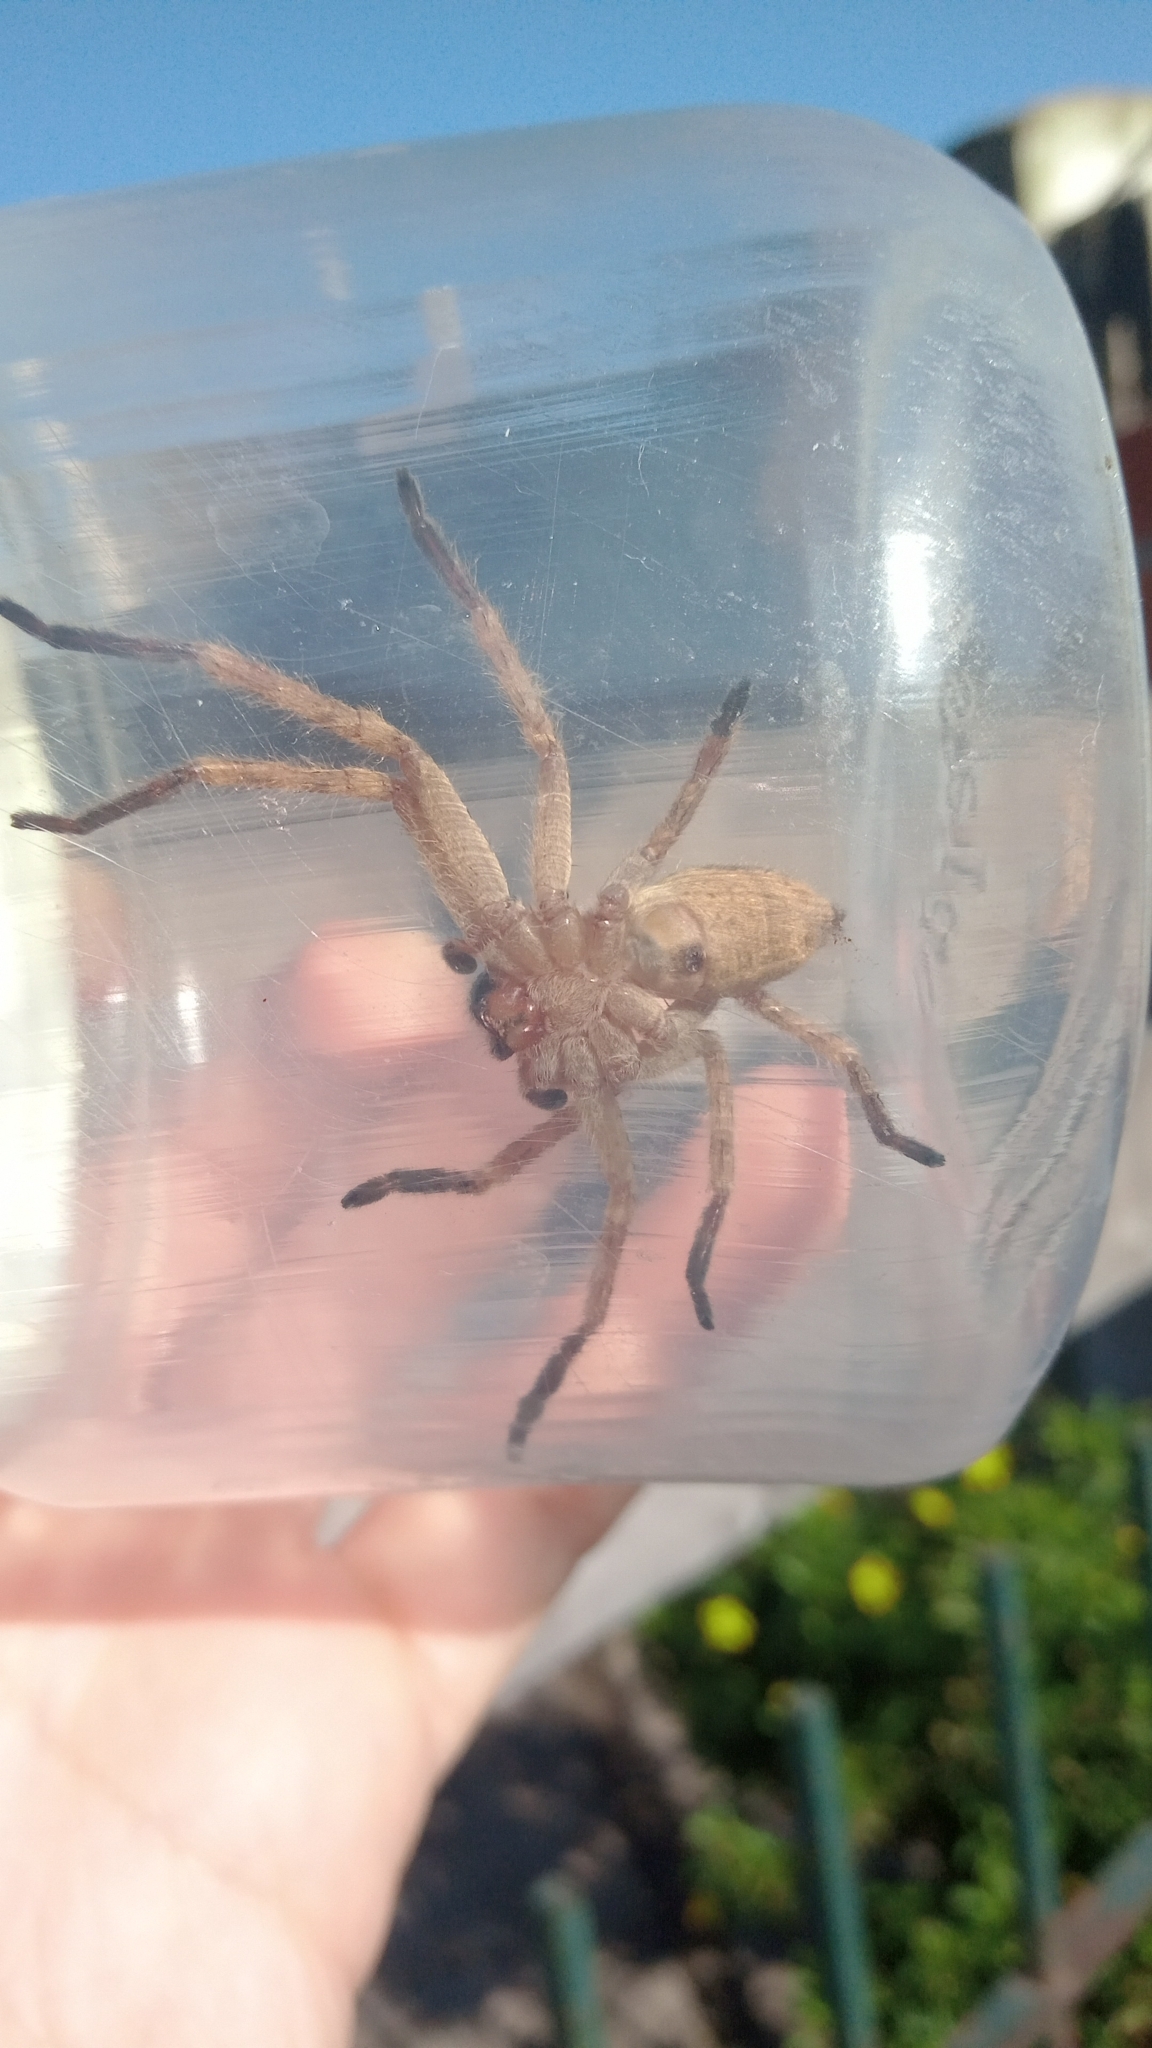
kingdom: Animalia
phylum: Arthropoda
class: Arachnida
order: Araneae
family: Sparassidae
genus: Polybetes
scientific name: Polybetes rapidus
